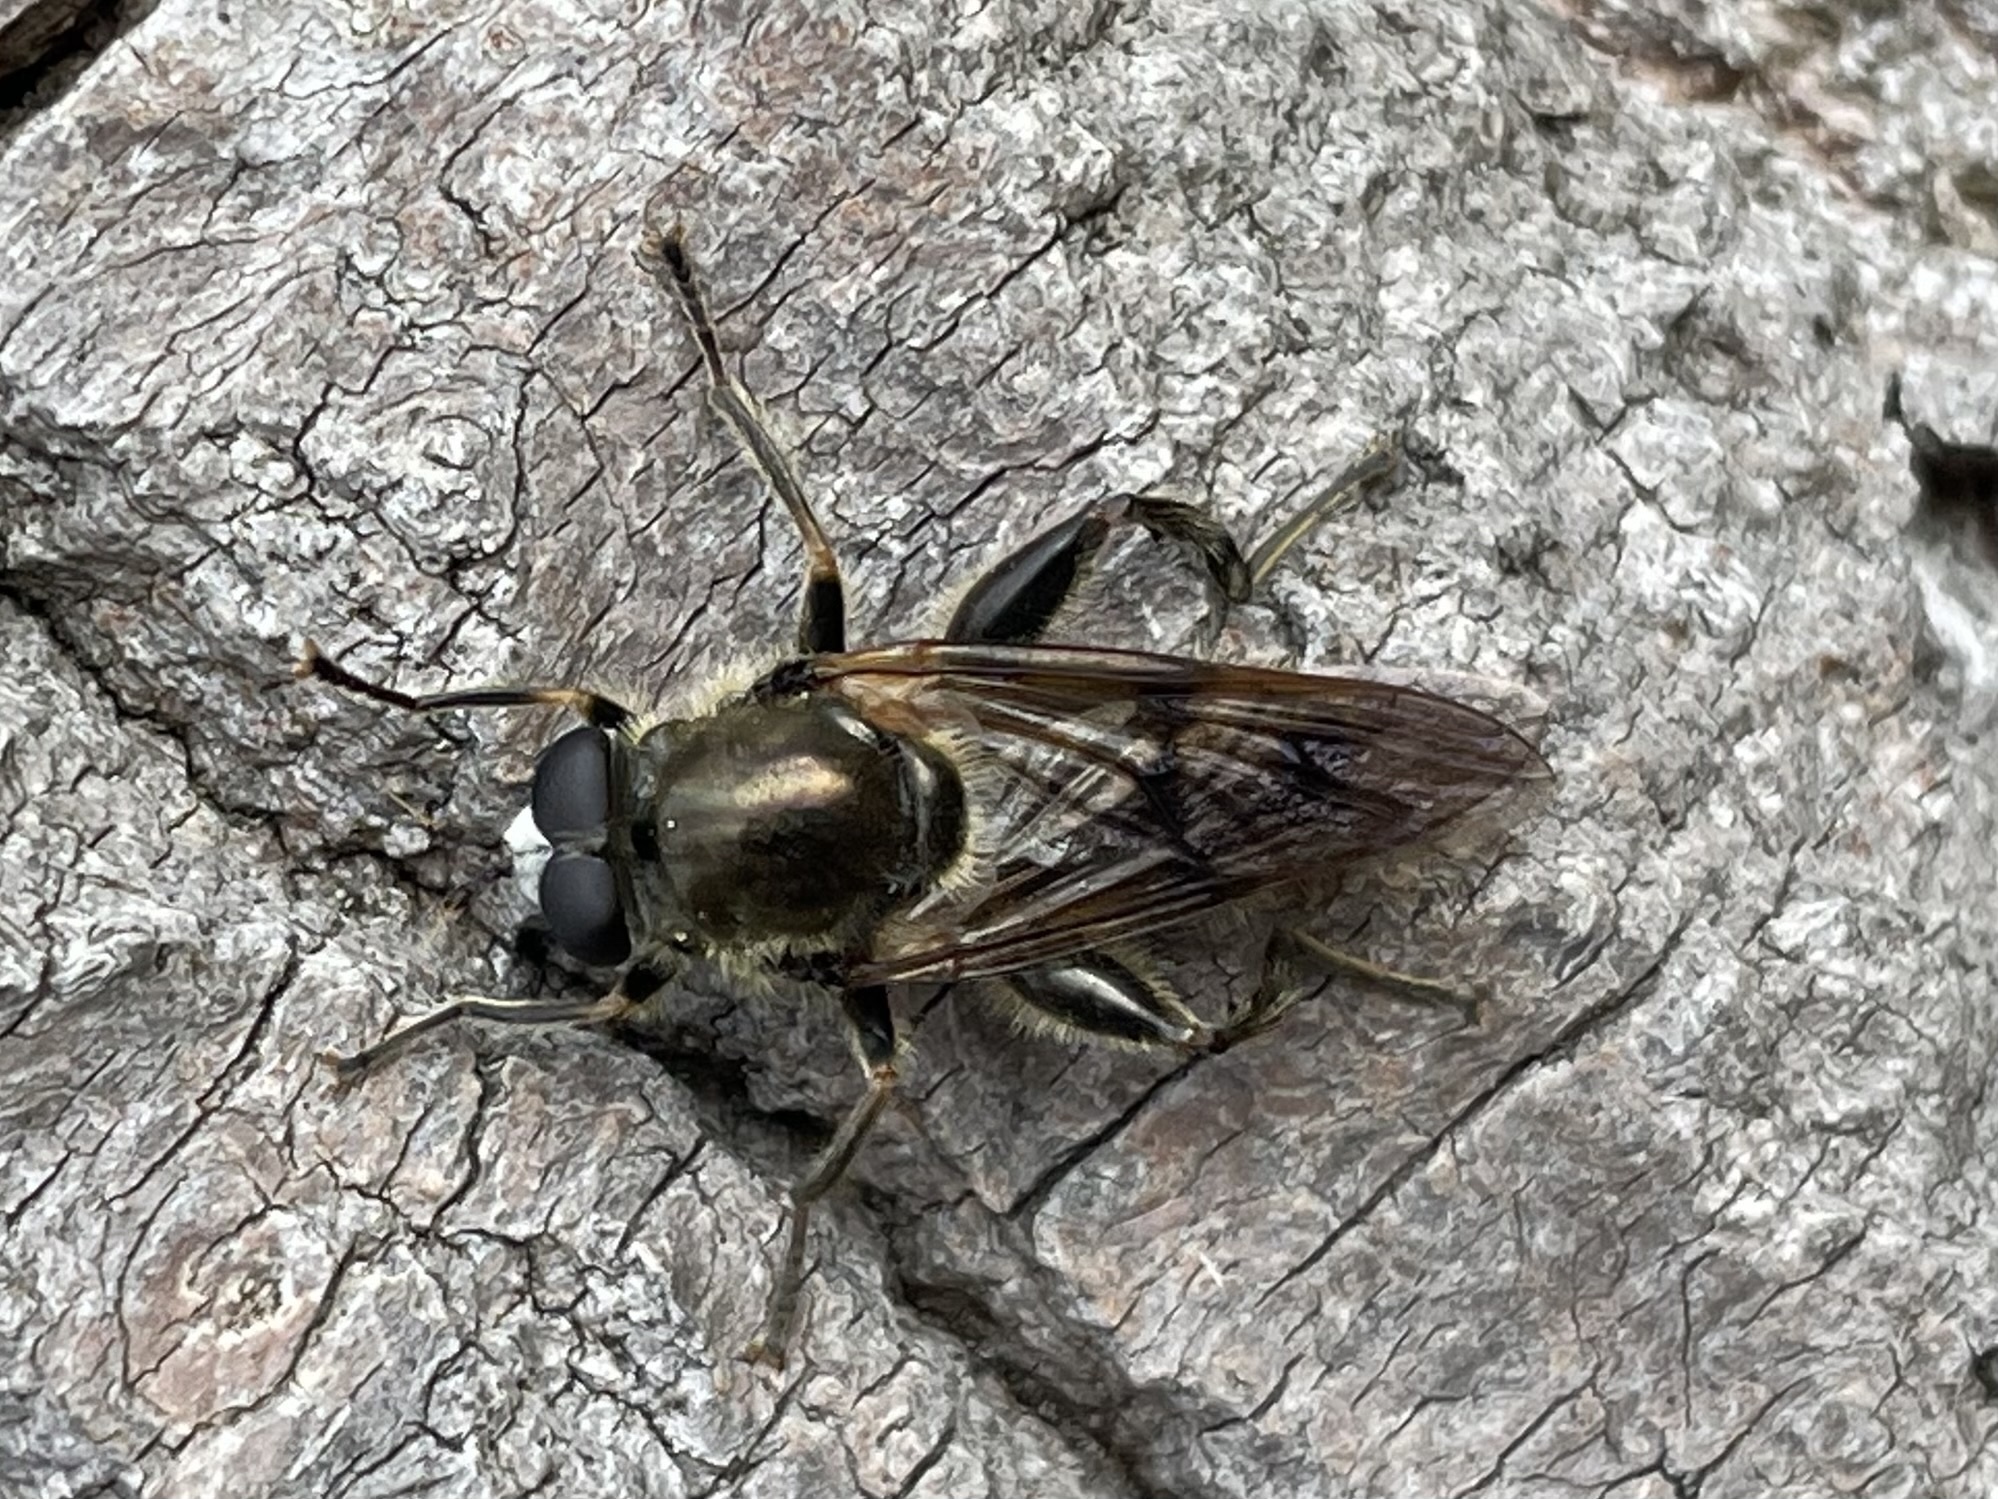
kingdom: Animalia
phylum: Arthropoda
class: Insecta
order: Diptera
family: Syrphidae
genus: Brachypalpus
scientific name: Brachypalpus oarus
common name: Eastern catkin fly
